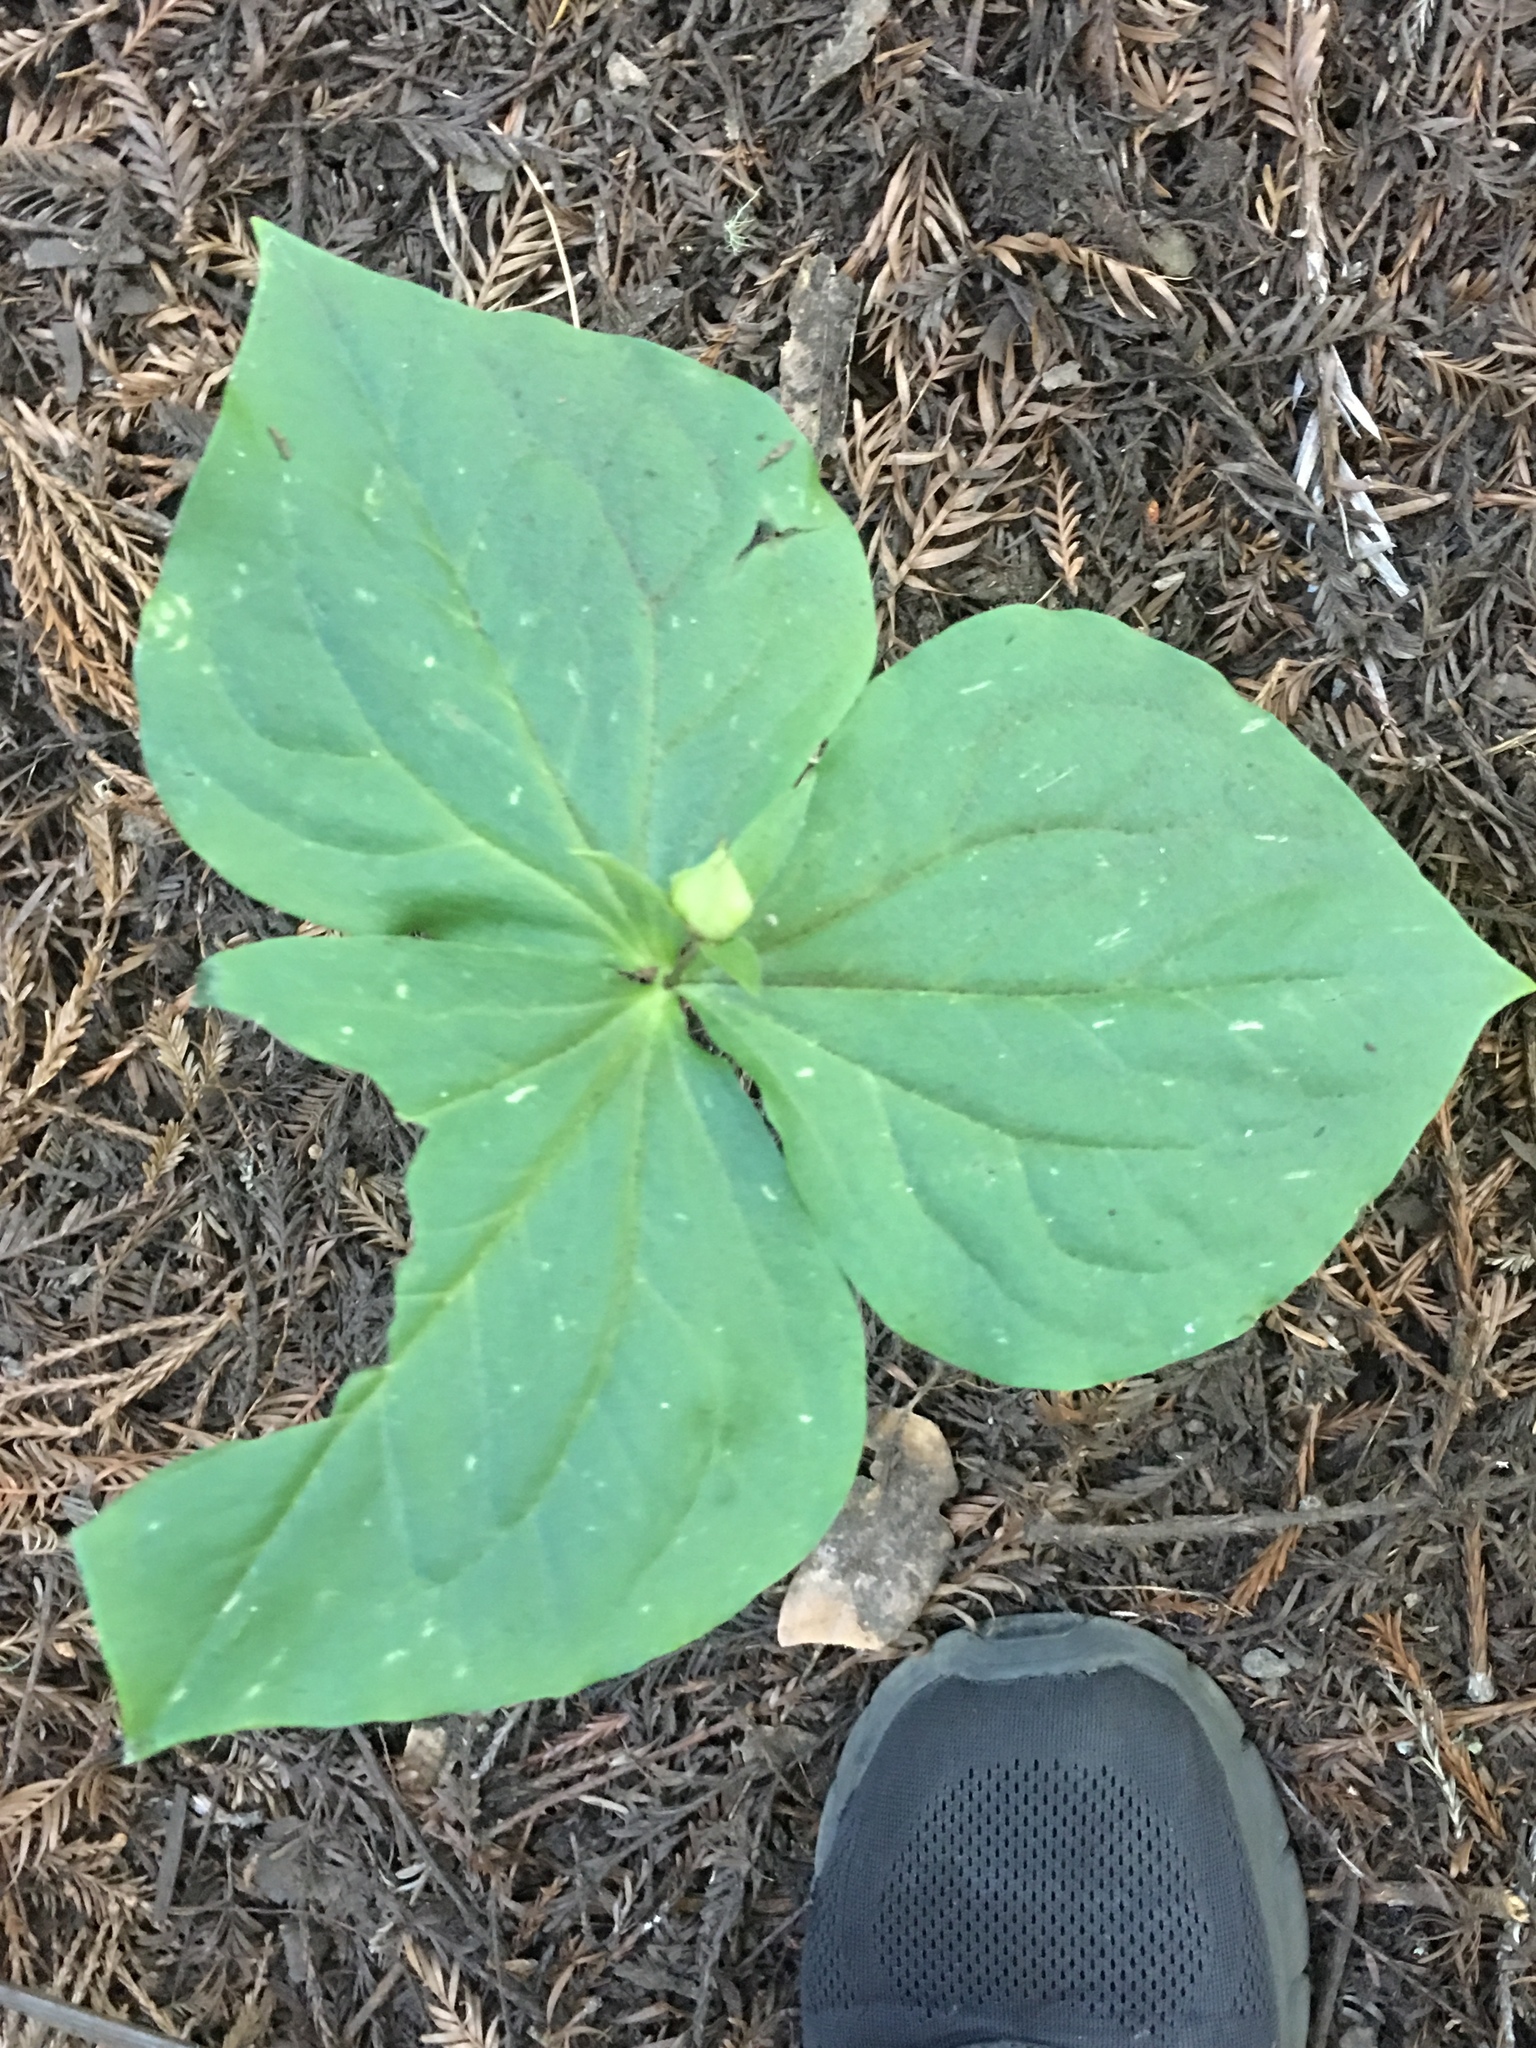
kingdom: Plantae
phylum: Tracheophyta
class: Liliopsida
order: Liliales
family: Melanthiaceae
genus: Trillium
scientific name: Trillium ovatum
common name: Pacific trillium
